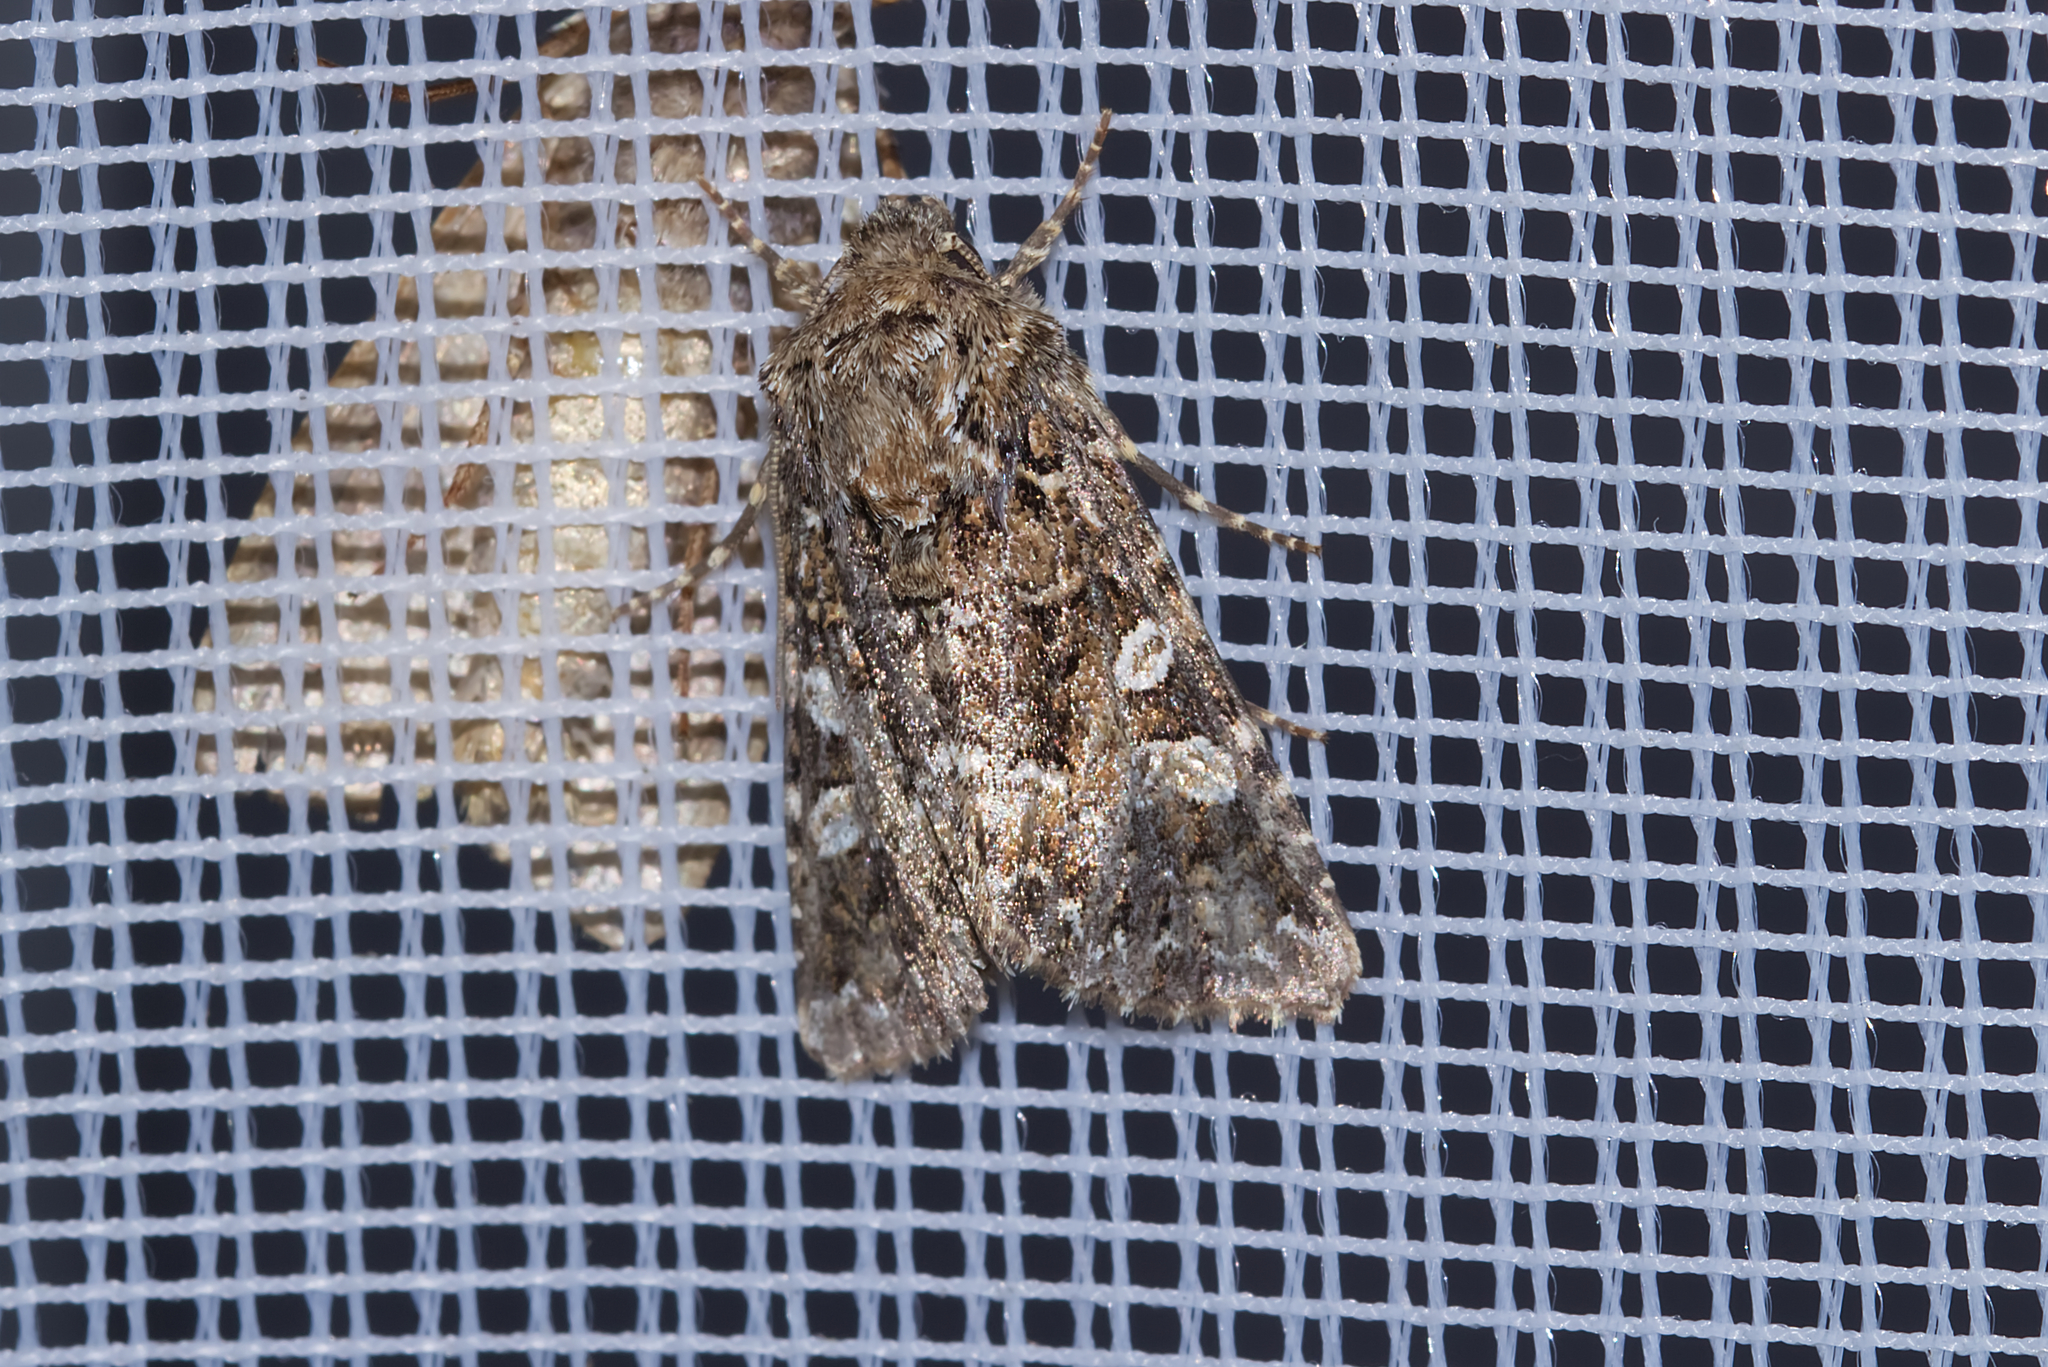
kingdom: Animalia
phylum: Arthropoda
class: Insecta
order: Lepidoptera
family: Noctuidae
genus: Hadena
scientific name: Hadena perplexa
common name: Tawny shears
